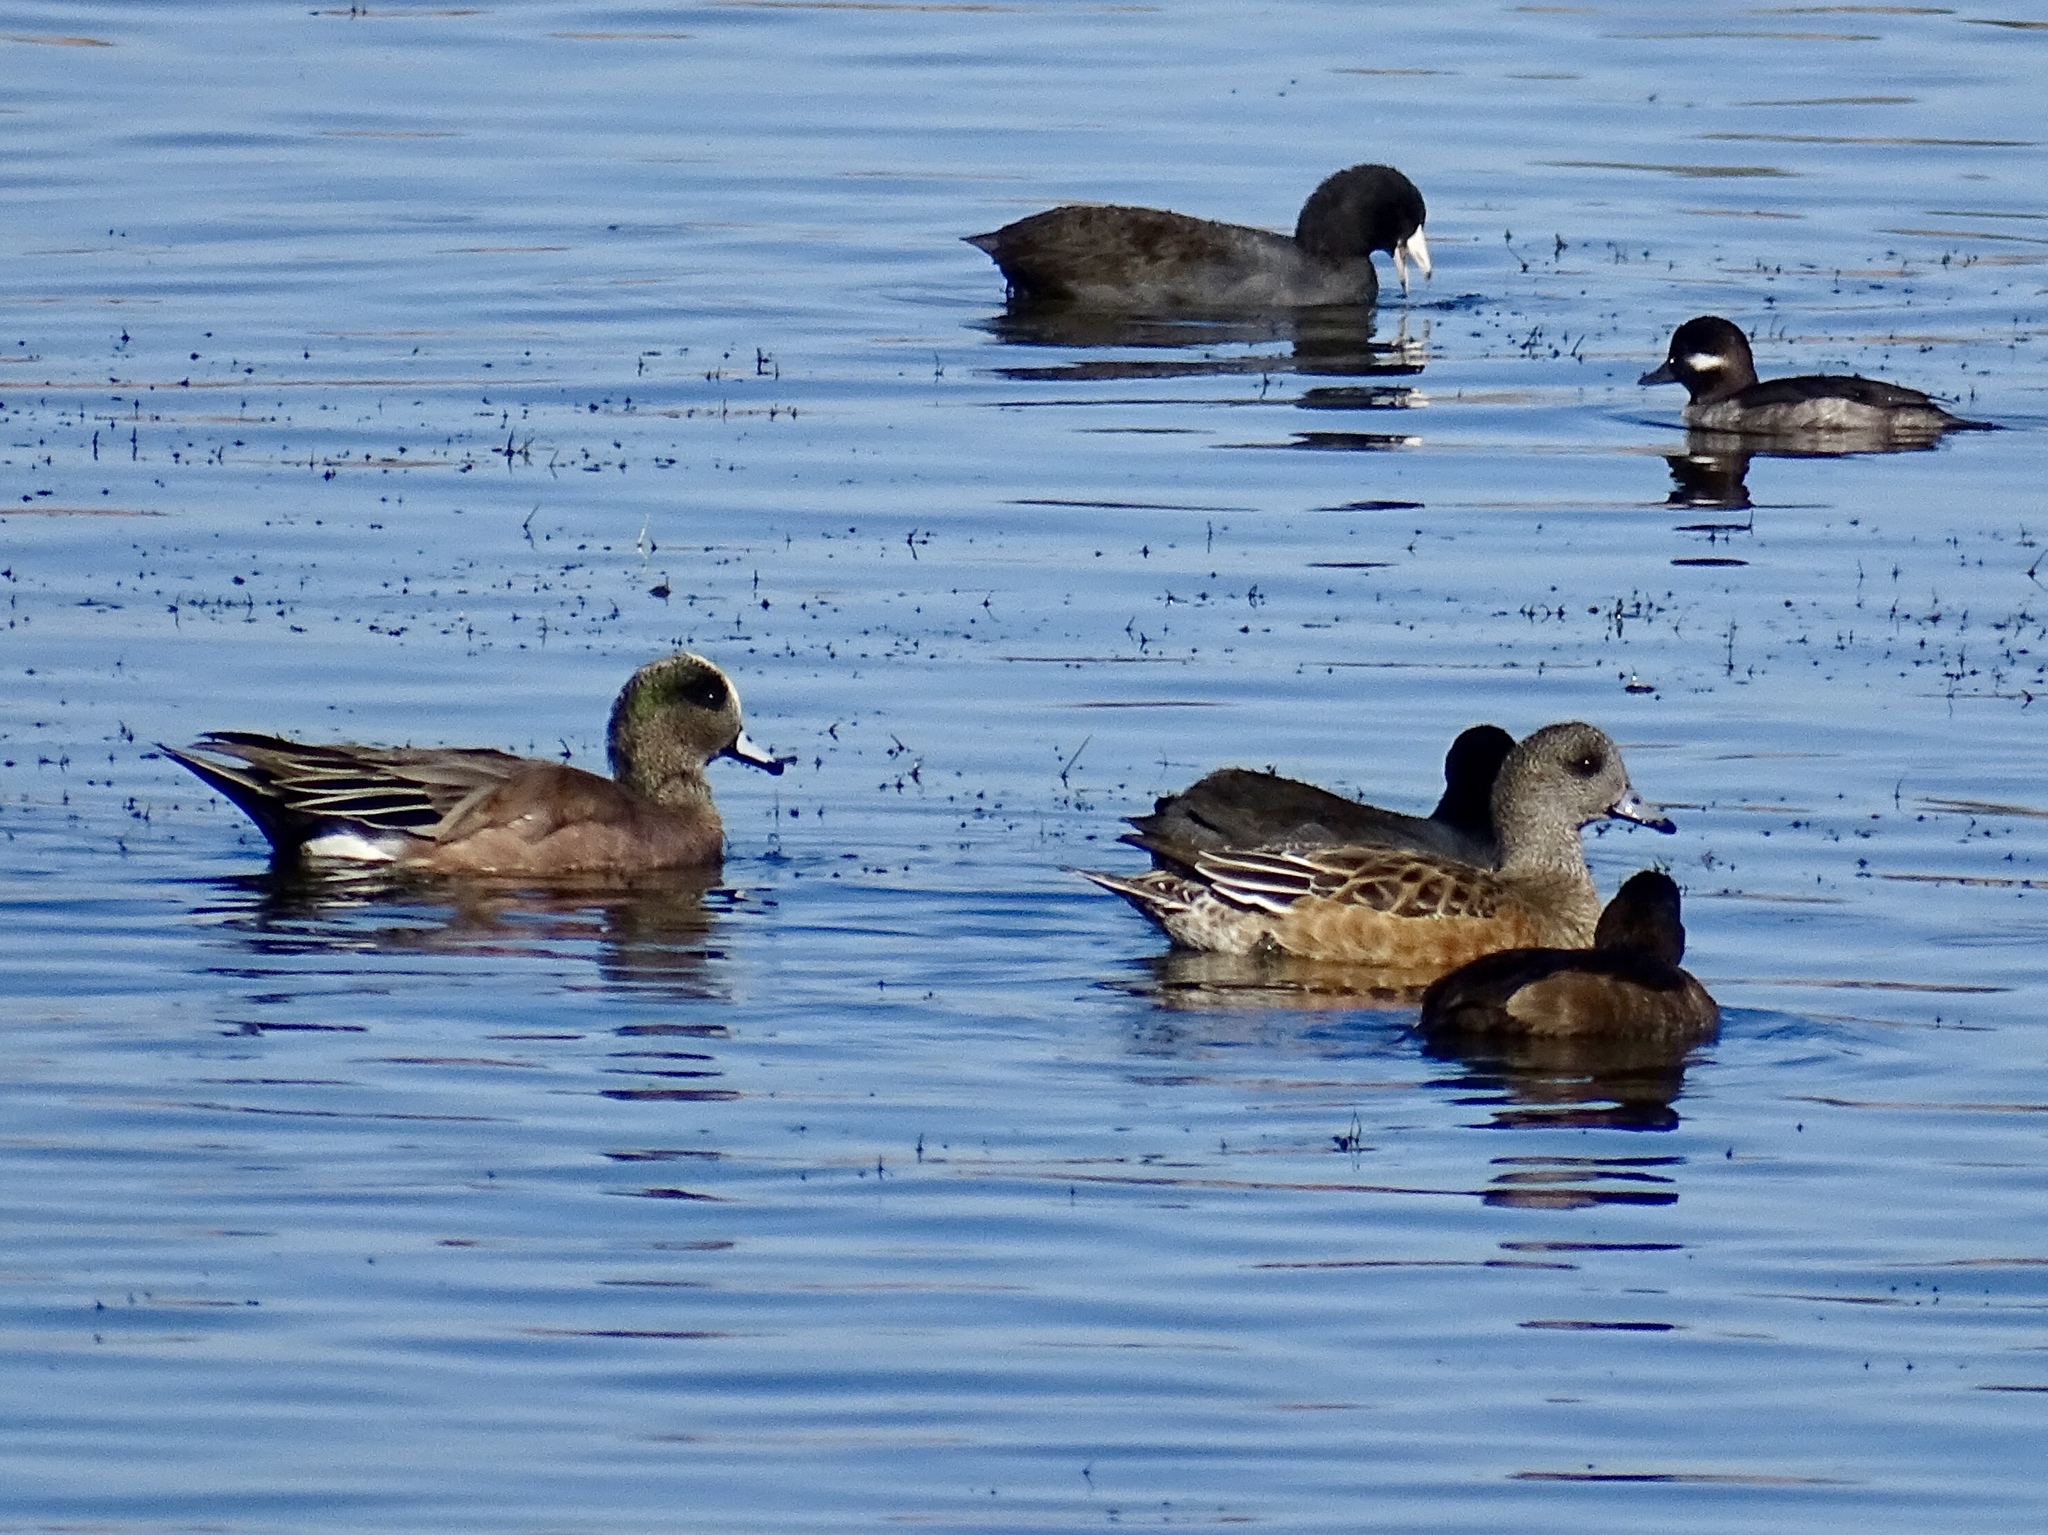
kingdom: Animalia
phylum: Chordata
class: Aves
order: Anseriformes
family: Anatidae
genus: Mareca
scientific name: Mareca americana
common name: American wigeon
